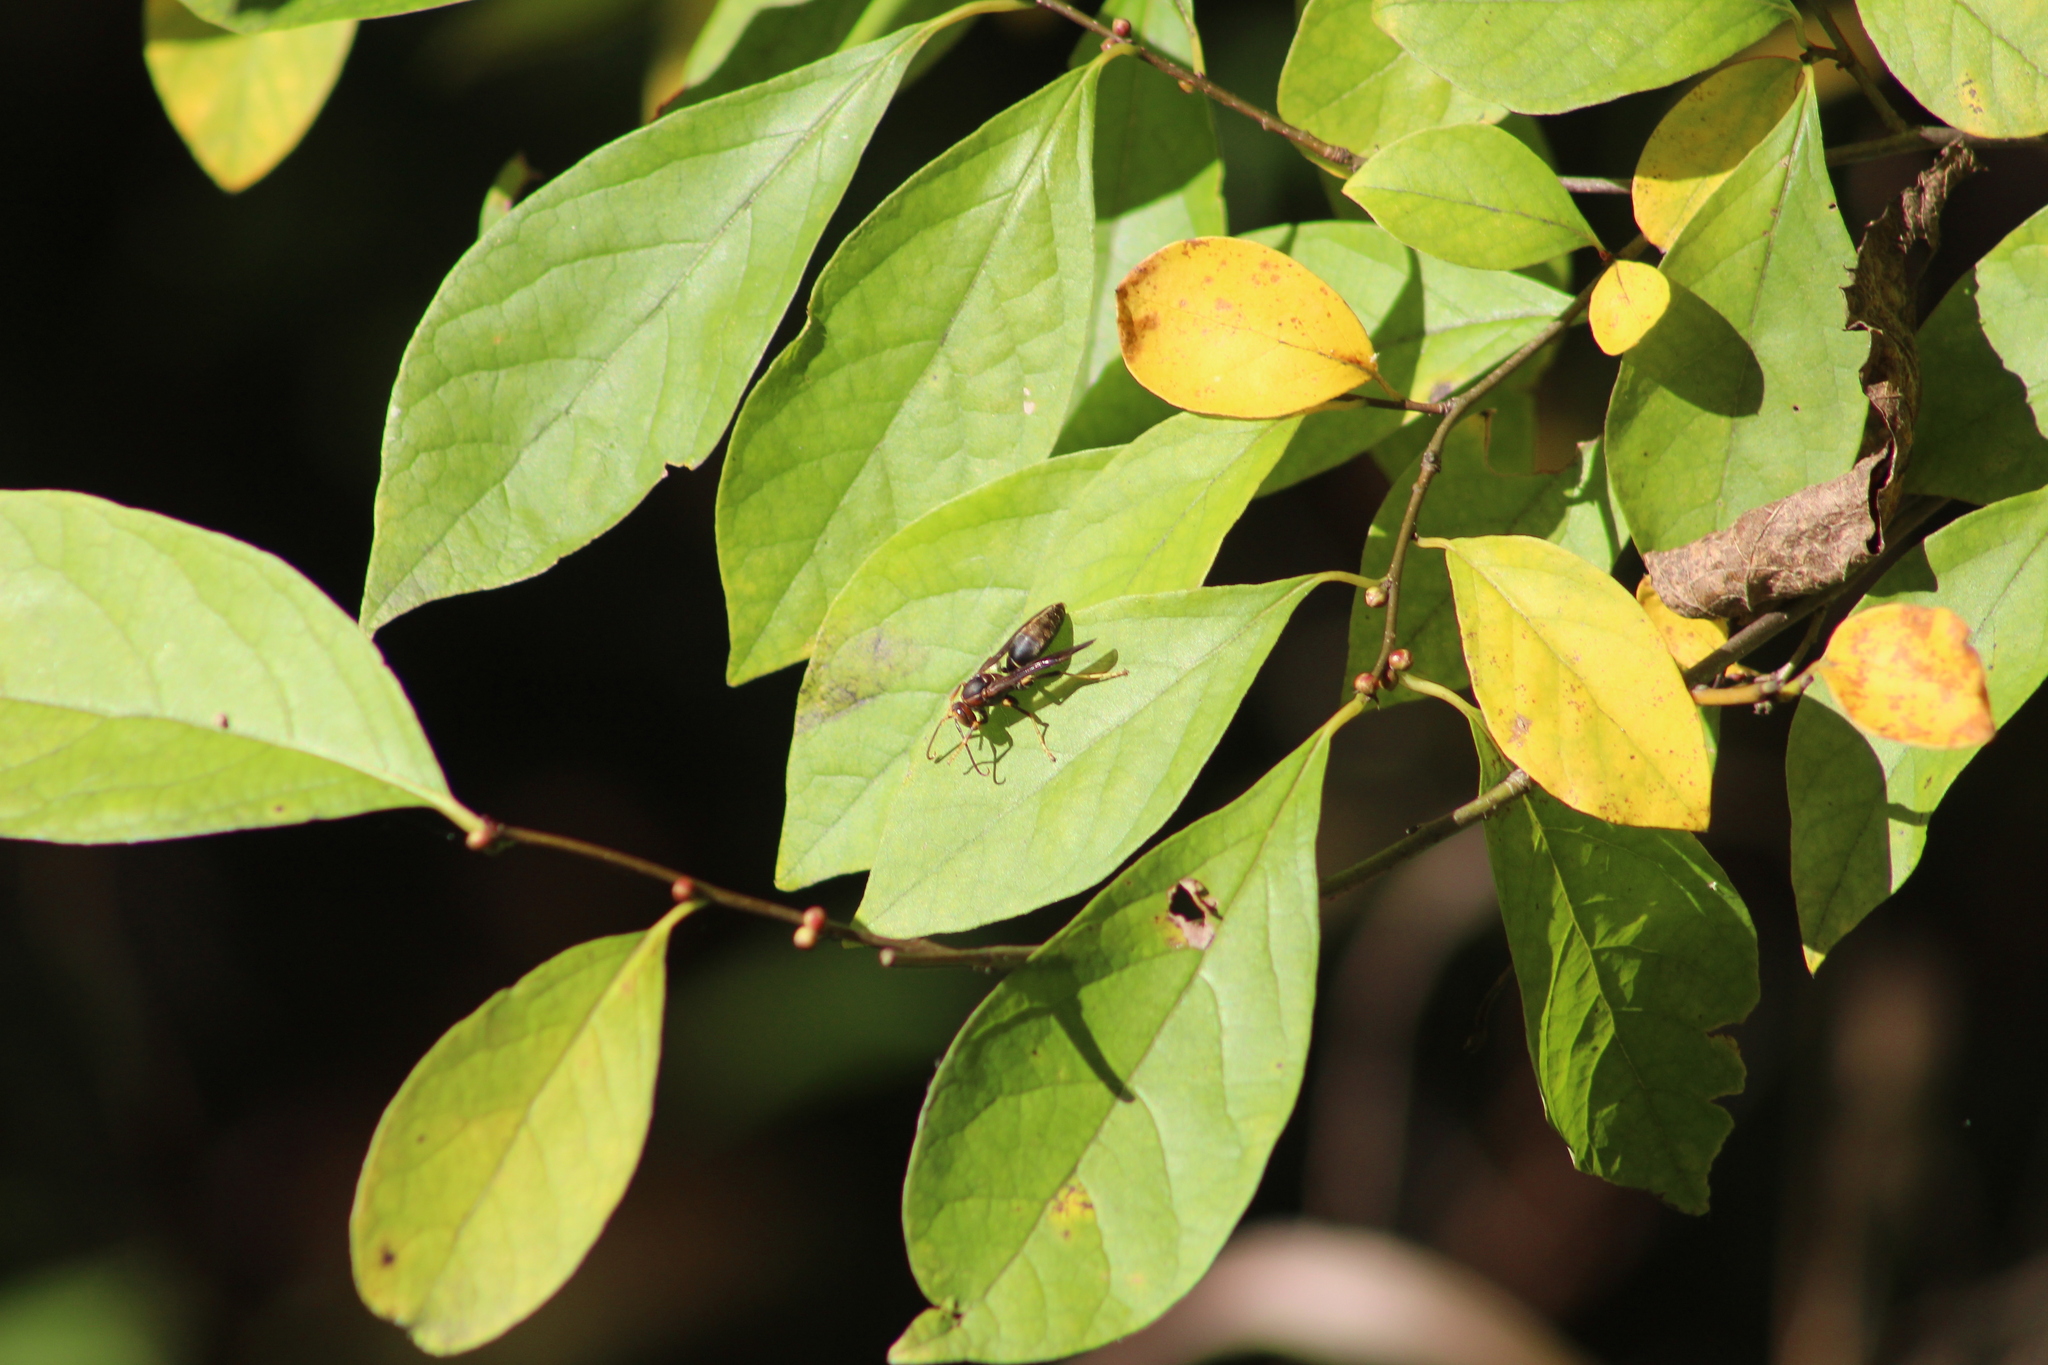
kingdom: Animalia
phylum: Arthropoda
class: Insecta
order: Hymenoptera
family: Eumenidae
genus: Polistes
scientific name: Polistes metricus
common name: Metric paper wasp
